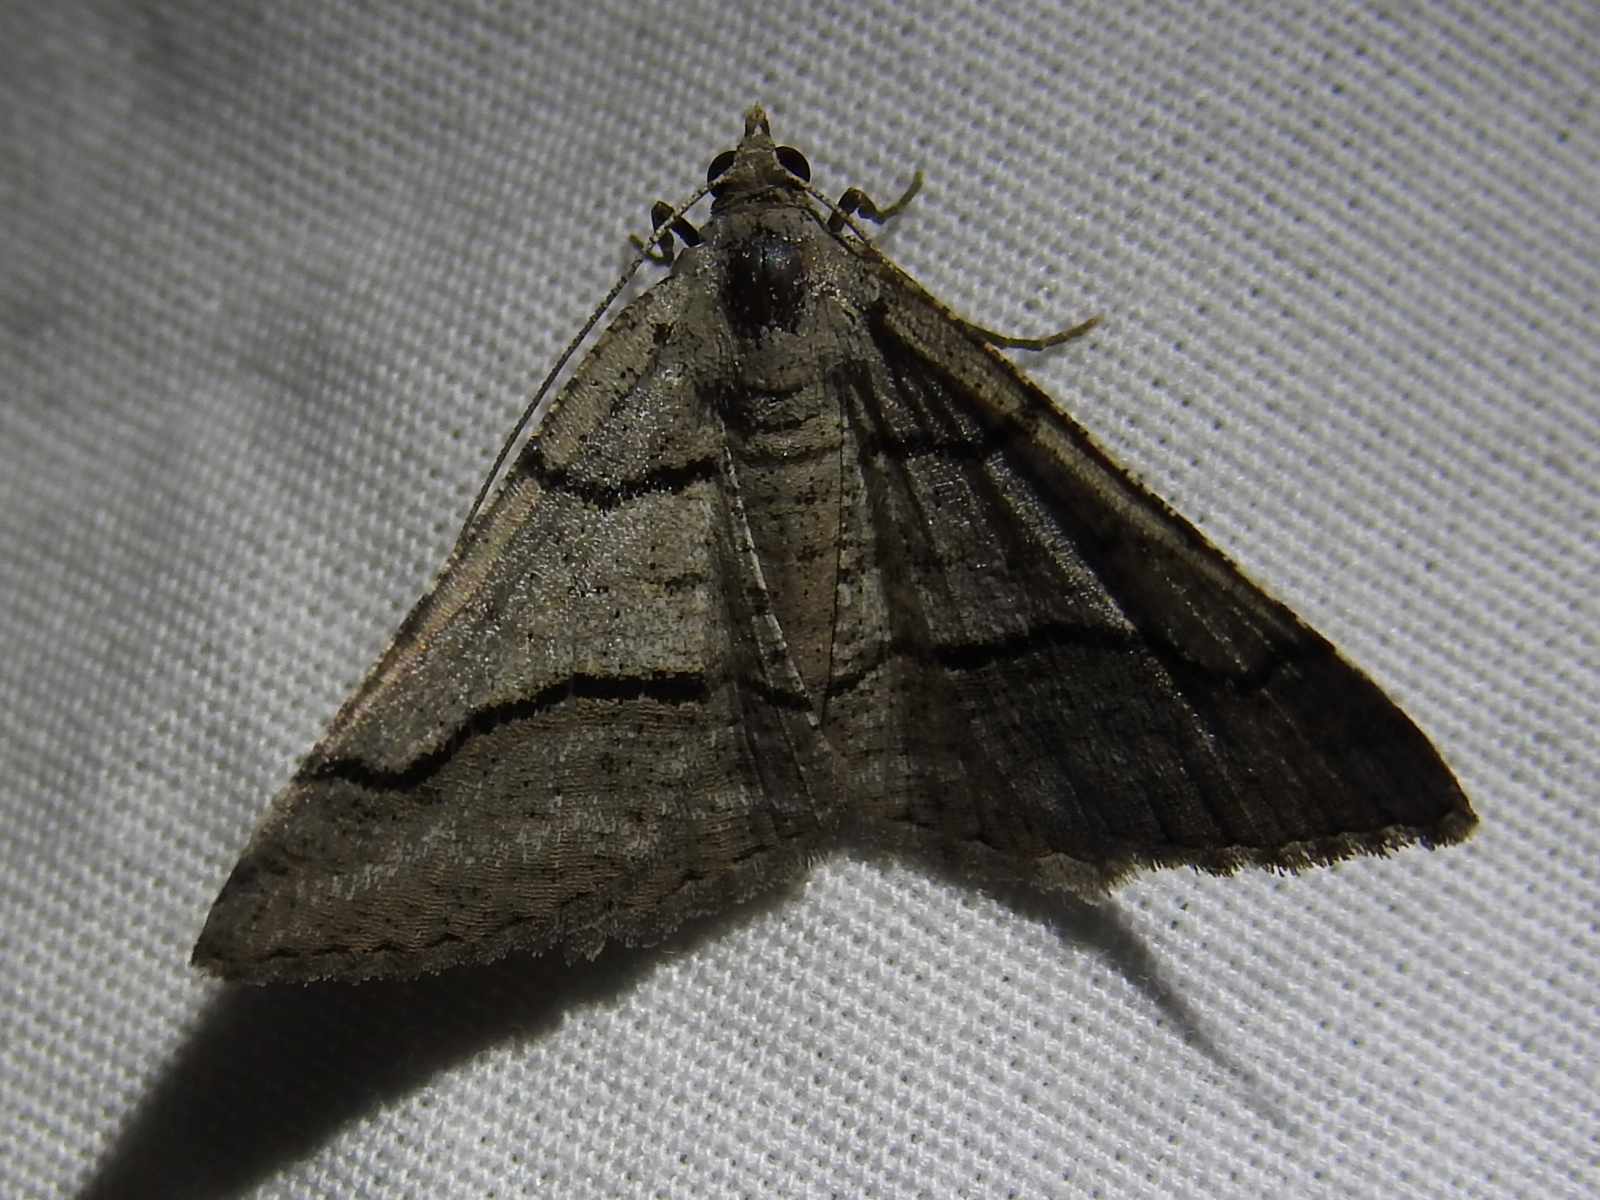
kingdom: Animalia
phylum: Arthropoda
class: Insecta
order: Lepidoptera
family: Geometridae
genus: Digrammia
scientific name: Digrammia continuata
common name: Curve-lined angle
